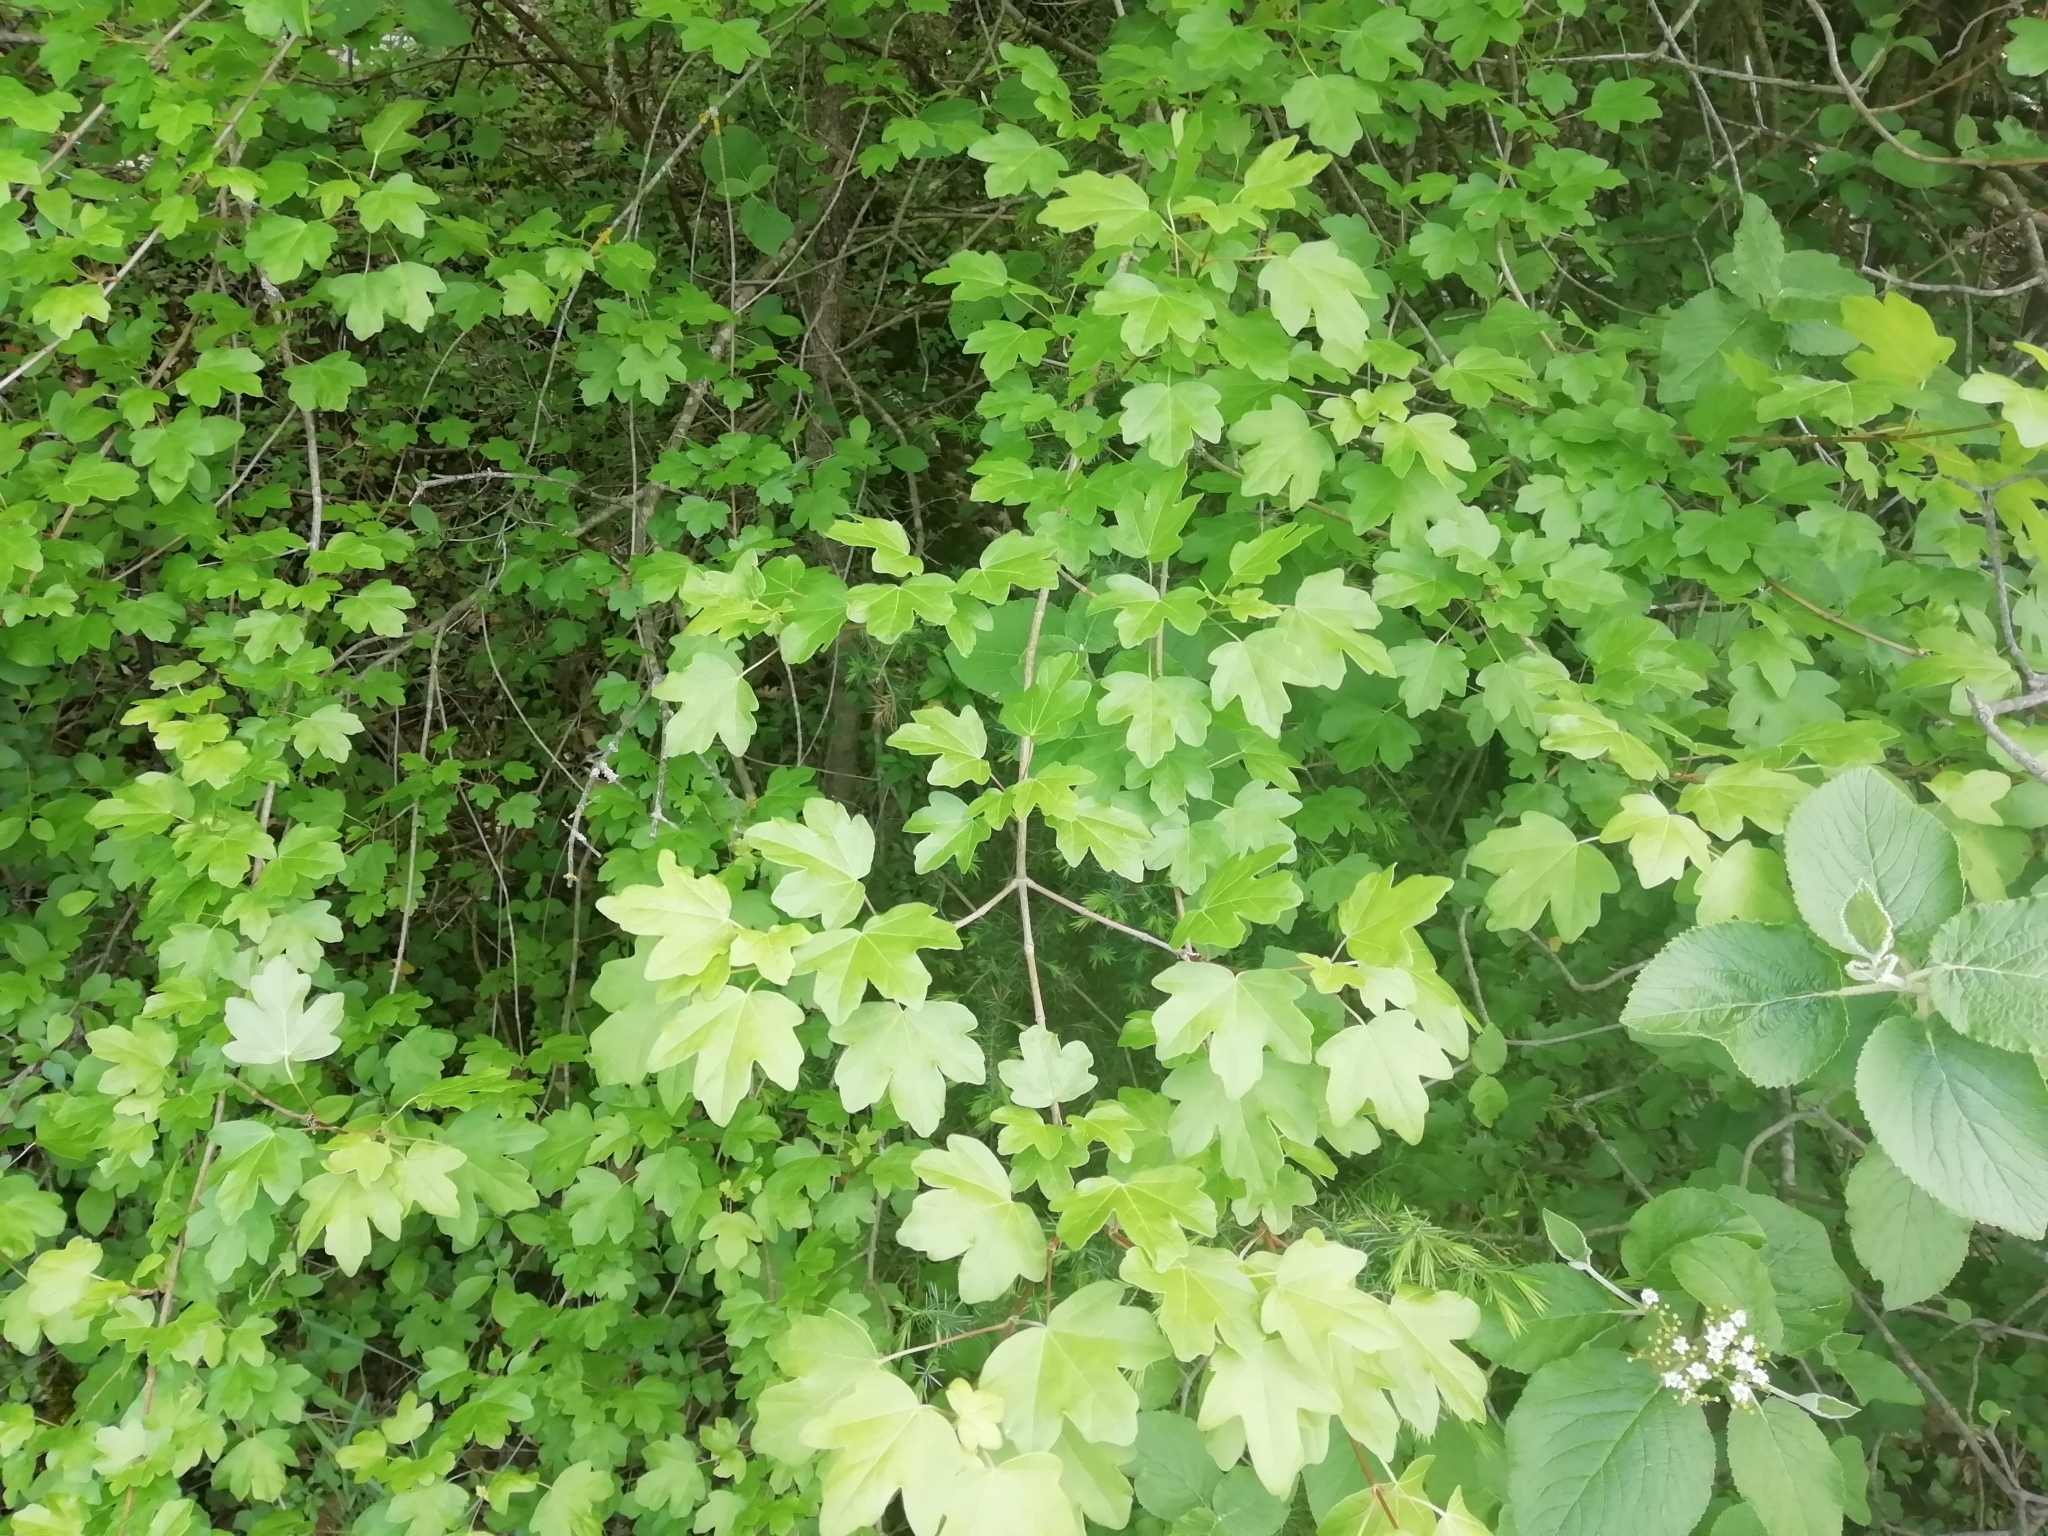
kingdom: Plantae
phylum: Tracheophyta
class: Magnoliopsida
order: Sapindales
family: Sapindaceae
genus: Acer
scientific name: Acer campestre
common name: Field maple
